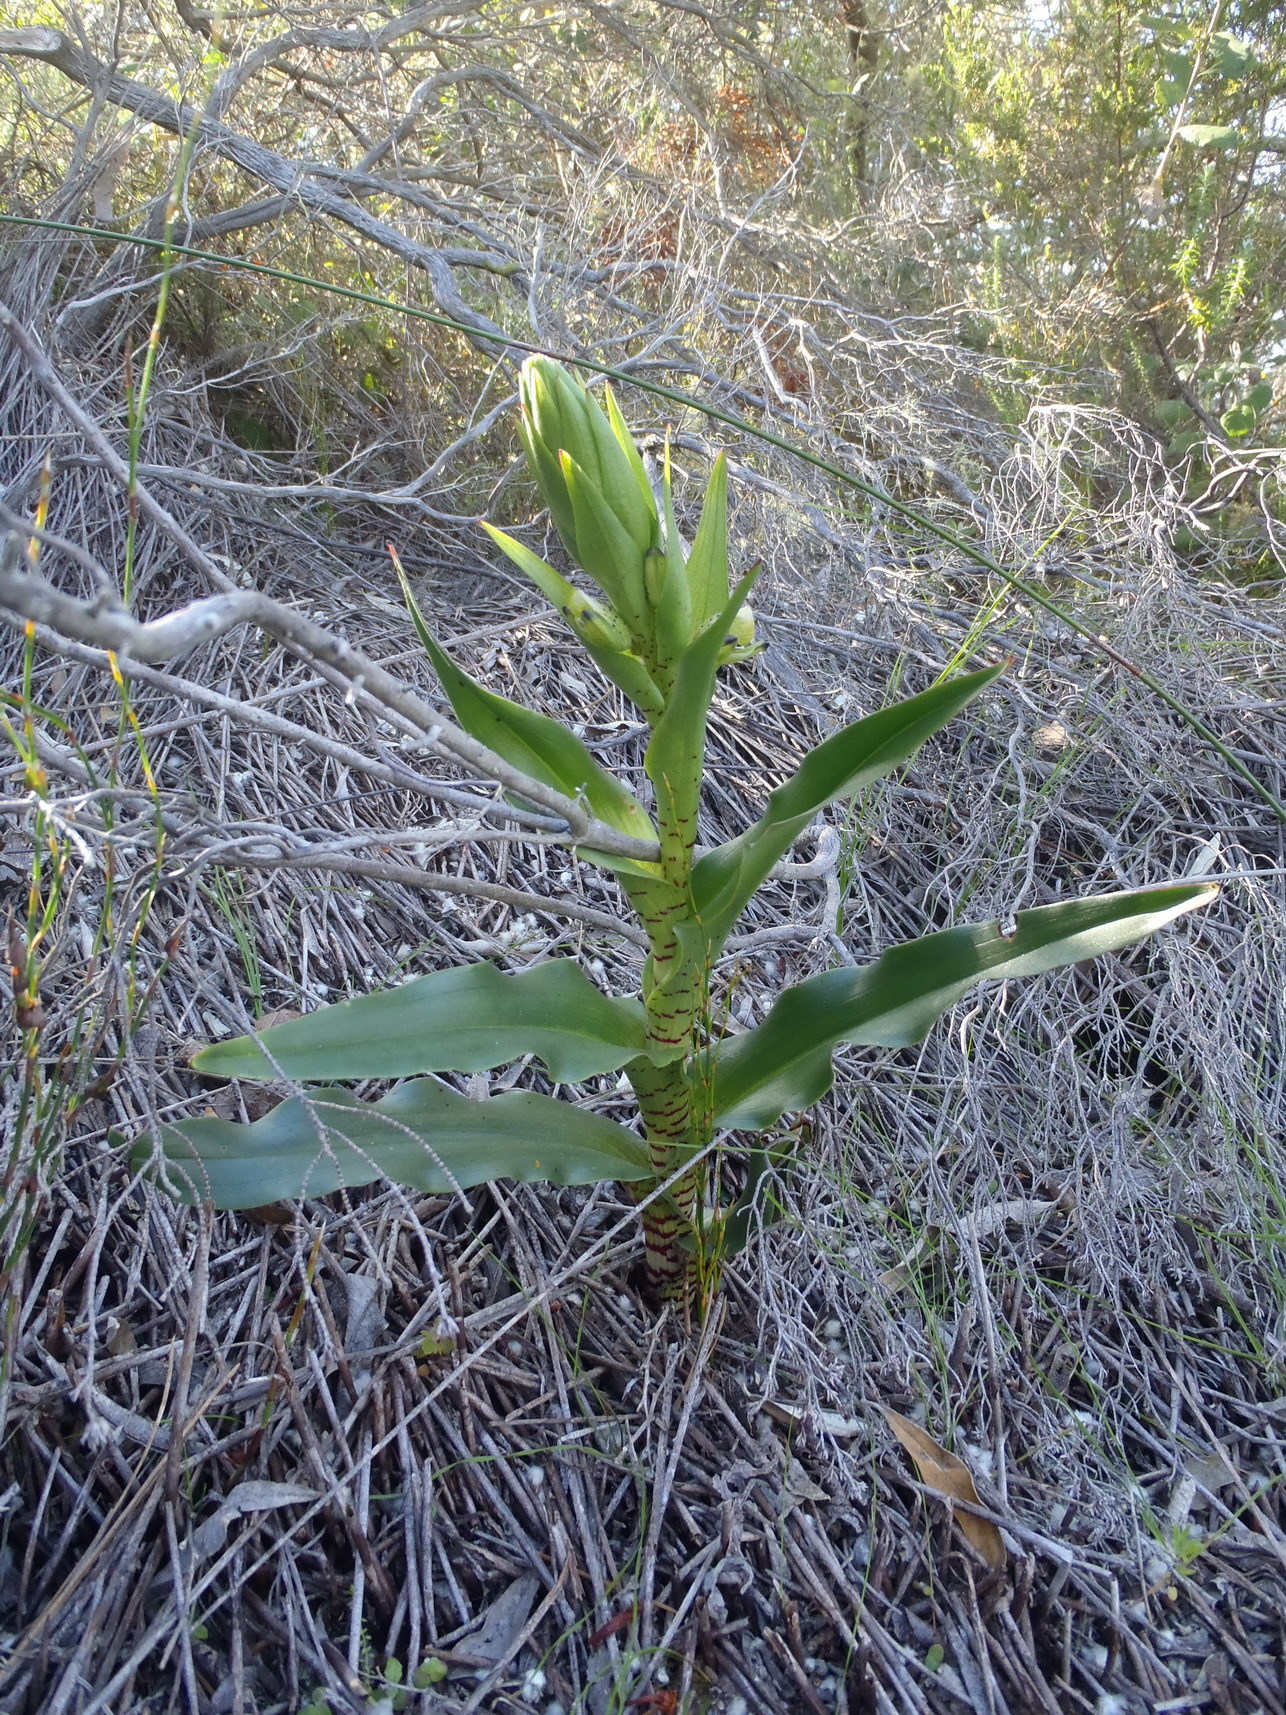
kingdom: Plantae
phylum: Tracheophyta
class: Liliopsida
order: Asparagales
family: Orchidaceae
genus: Disa
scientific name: Disa hallackii
